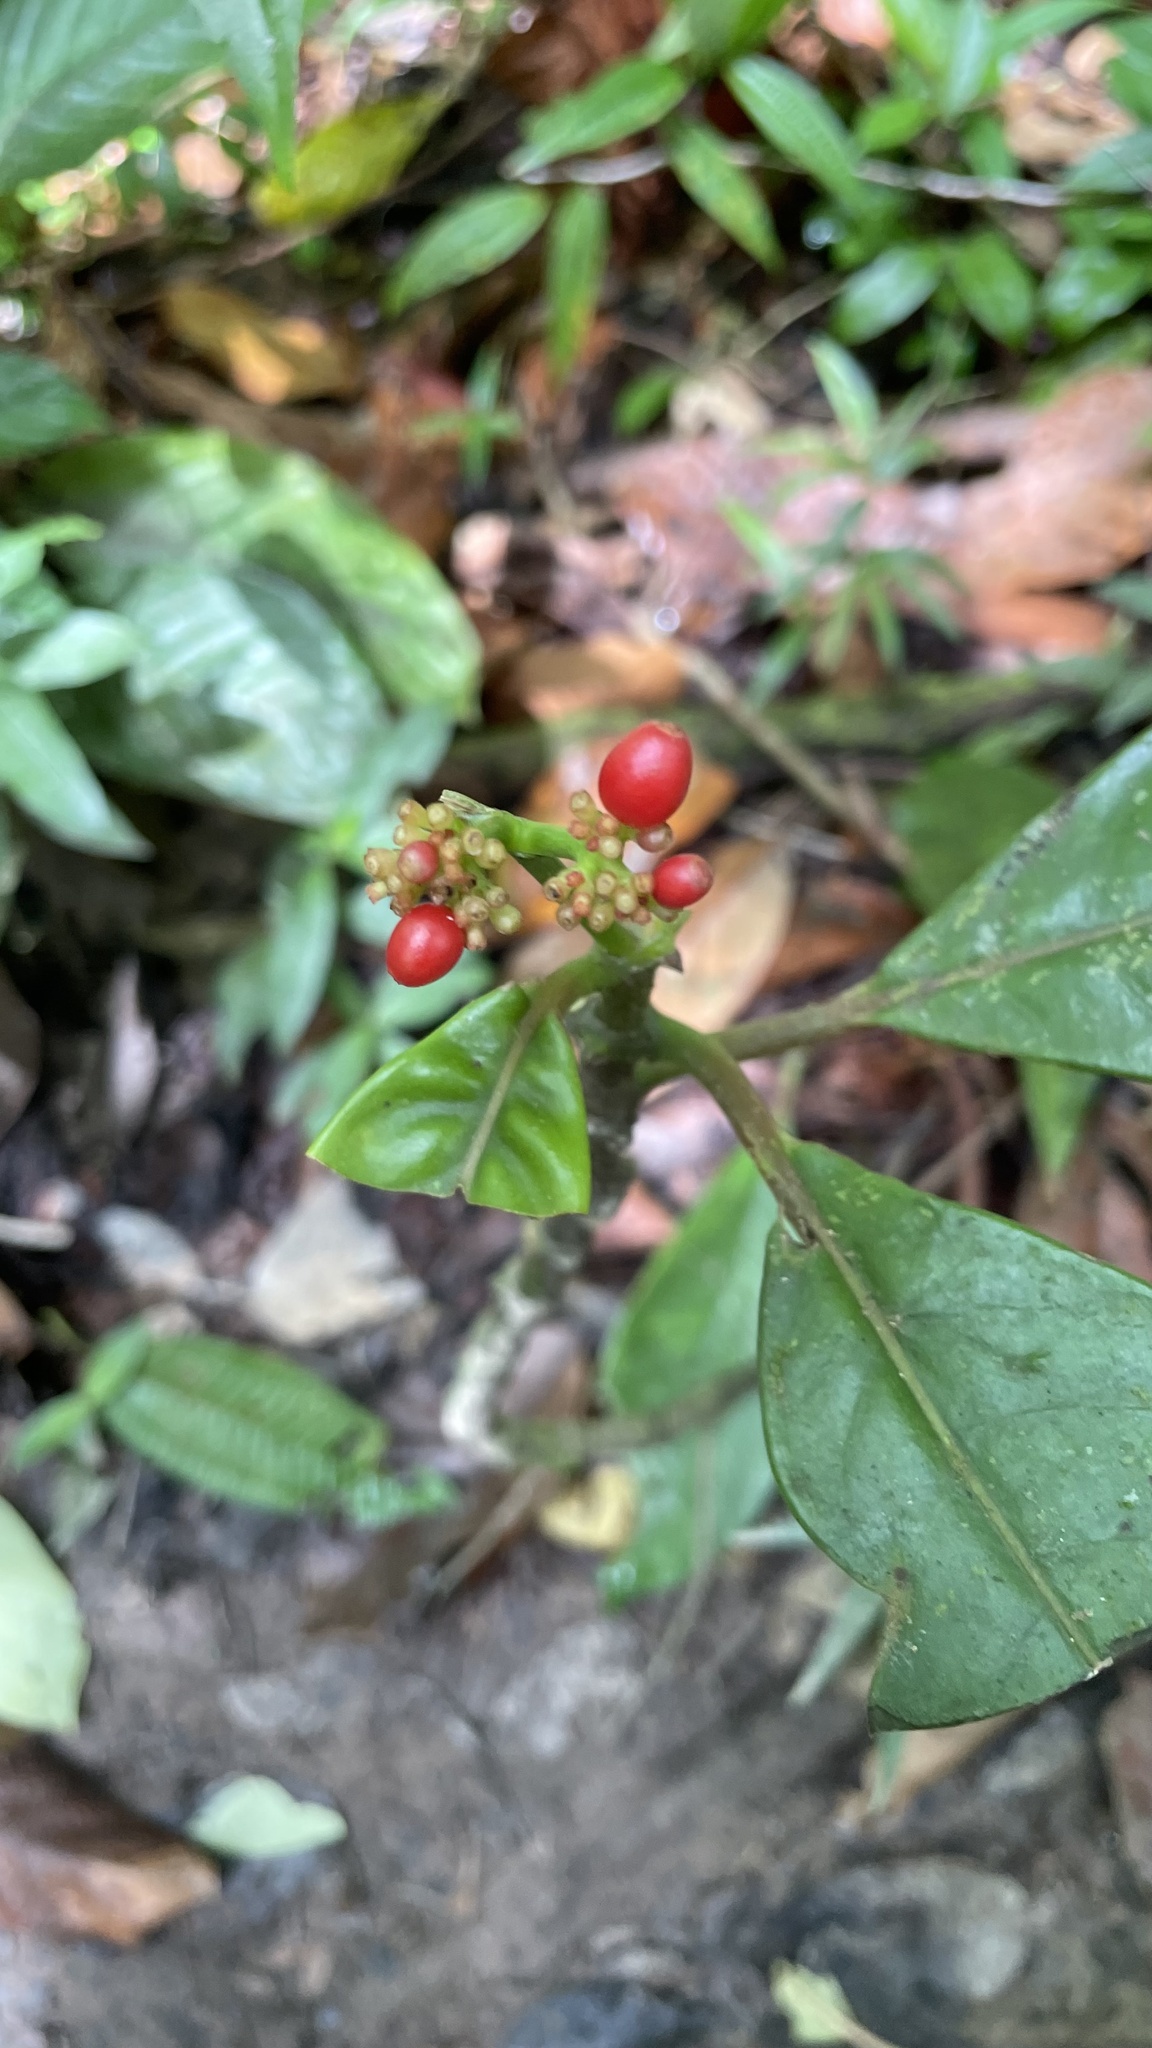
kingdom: Plantae
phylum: Tracheophyta
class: Magnoliopsida
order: Gentianales
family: Rubiaceae
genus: Notopleura
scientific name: Notopleura uliginosa
